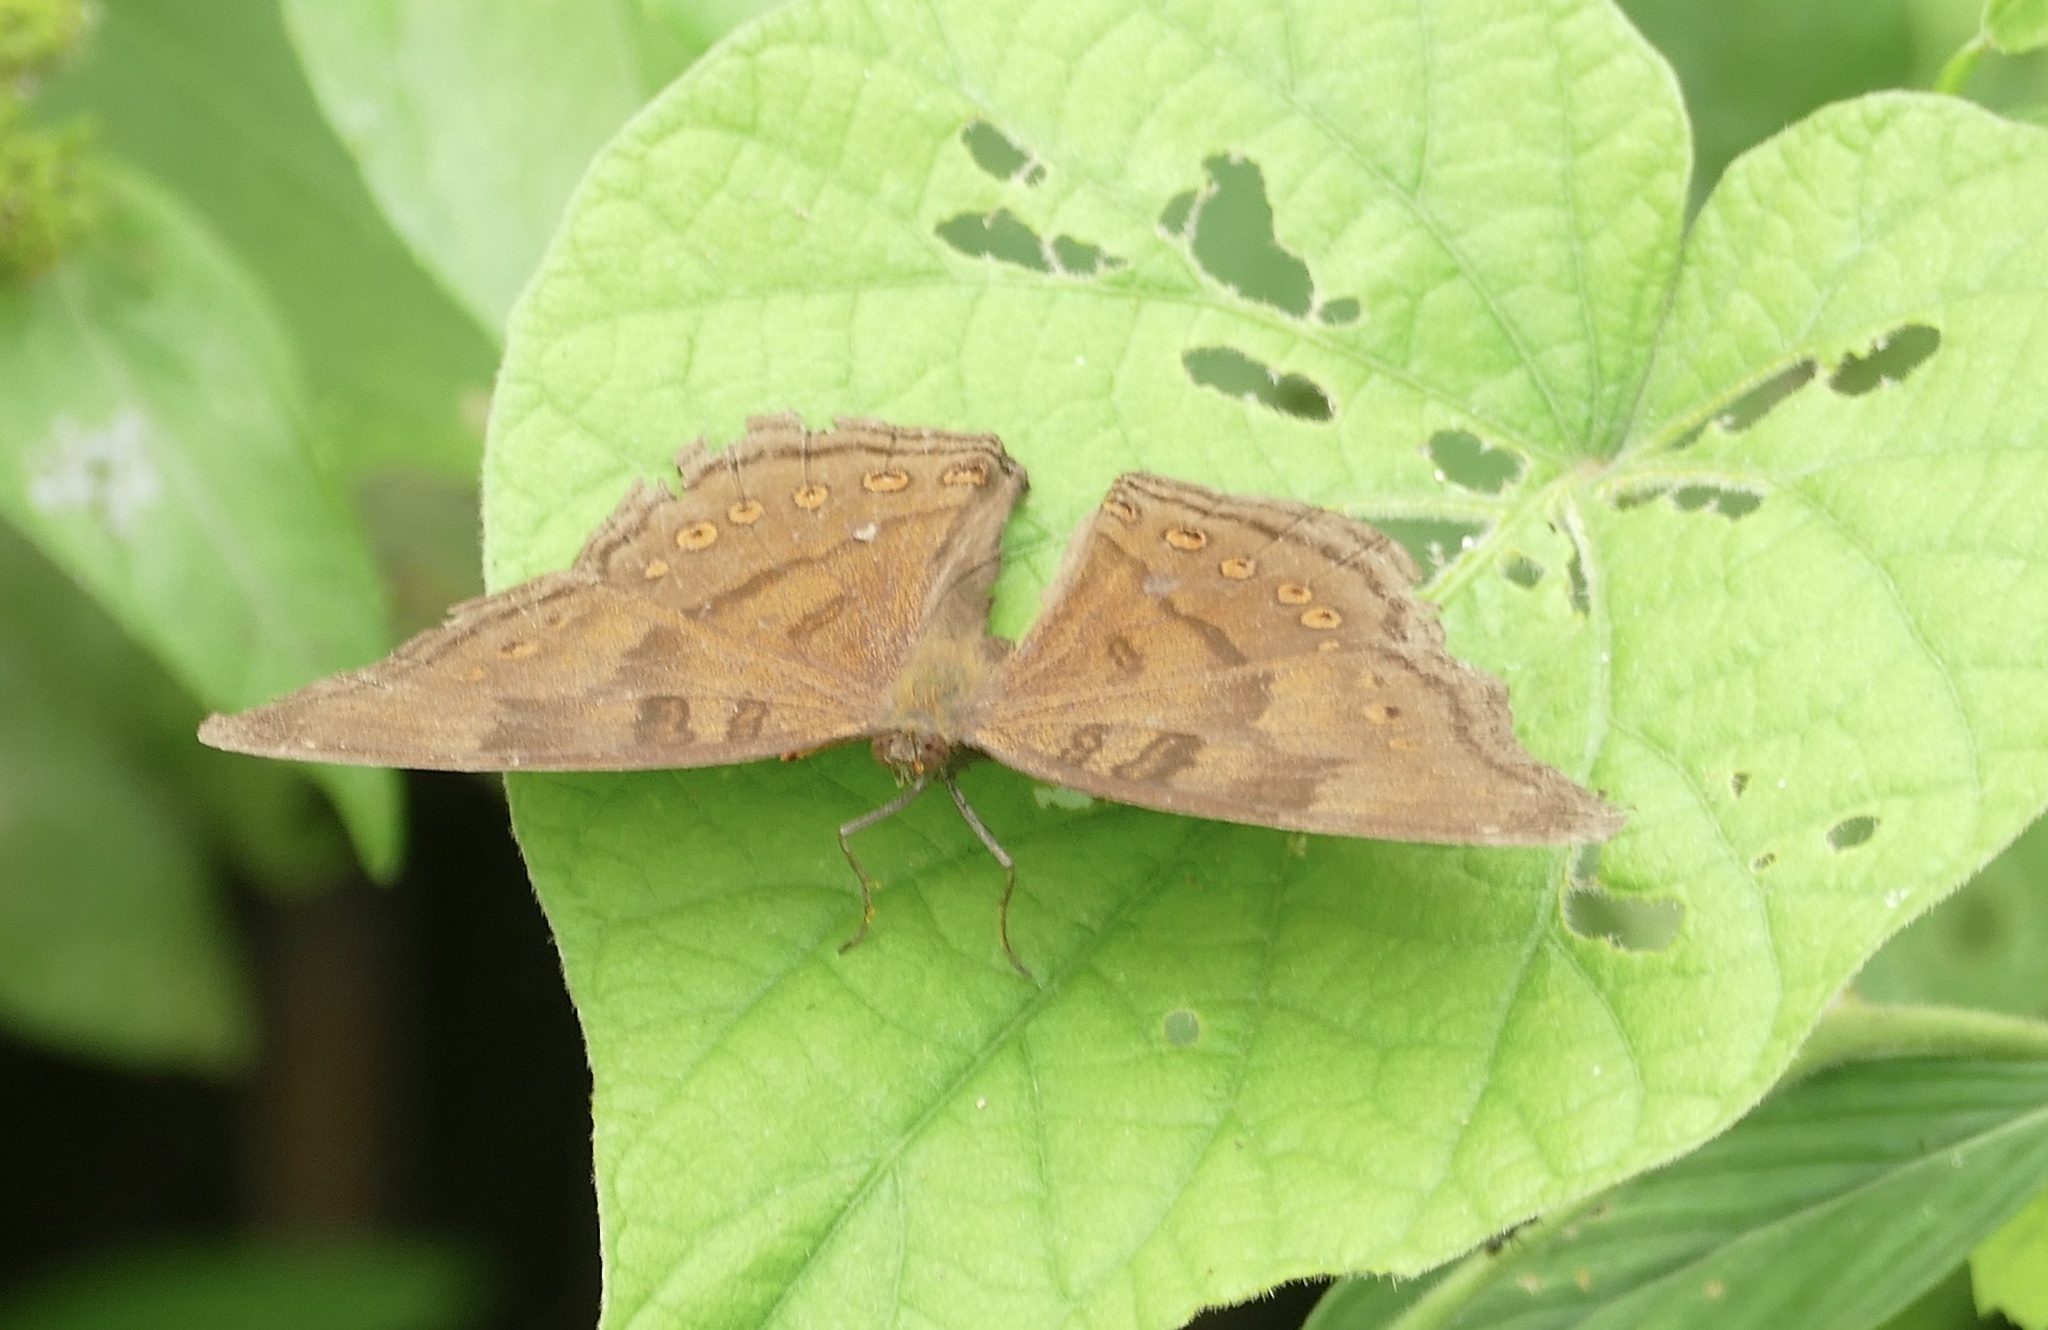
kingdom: Animalia
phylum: Arthropoda
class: Insecta
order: Lepidoptera
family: Nymphalidae
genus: Junonia
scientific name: Junonia
